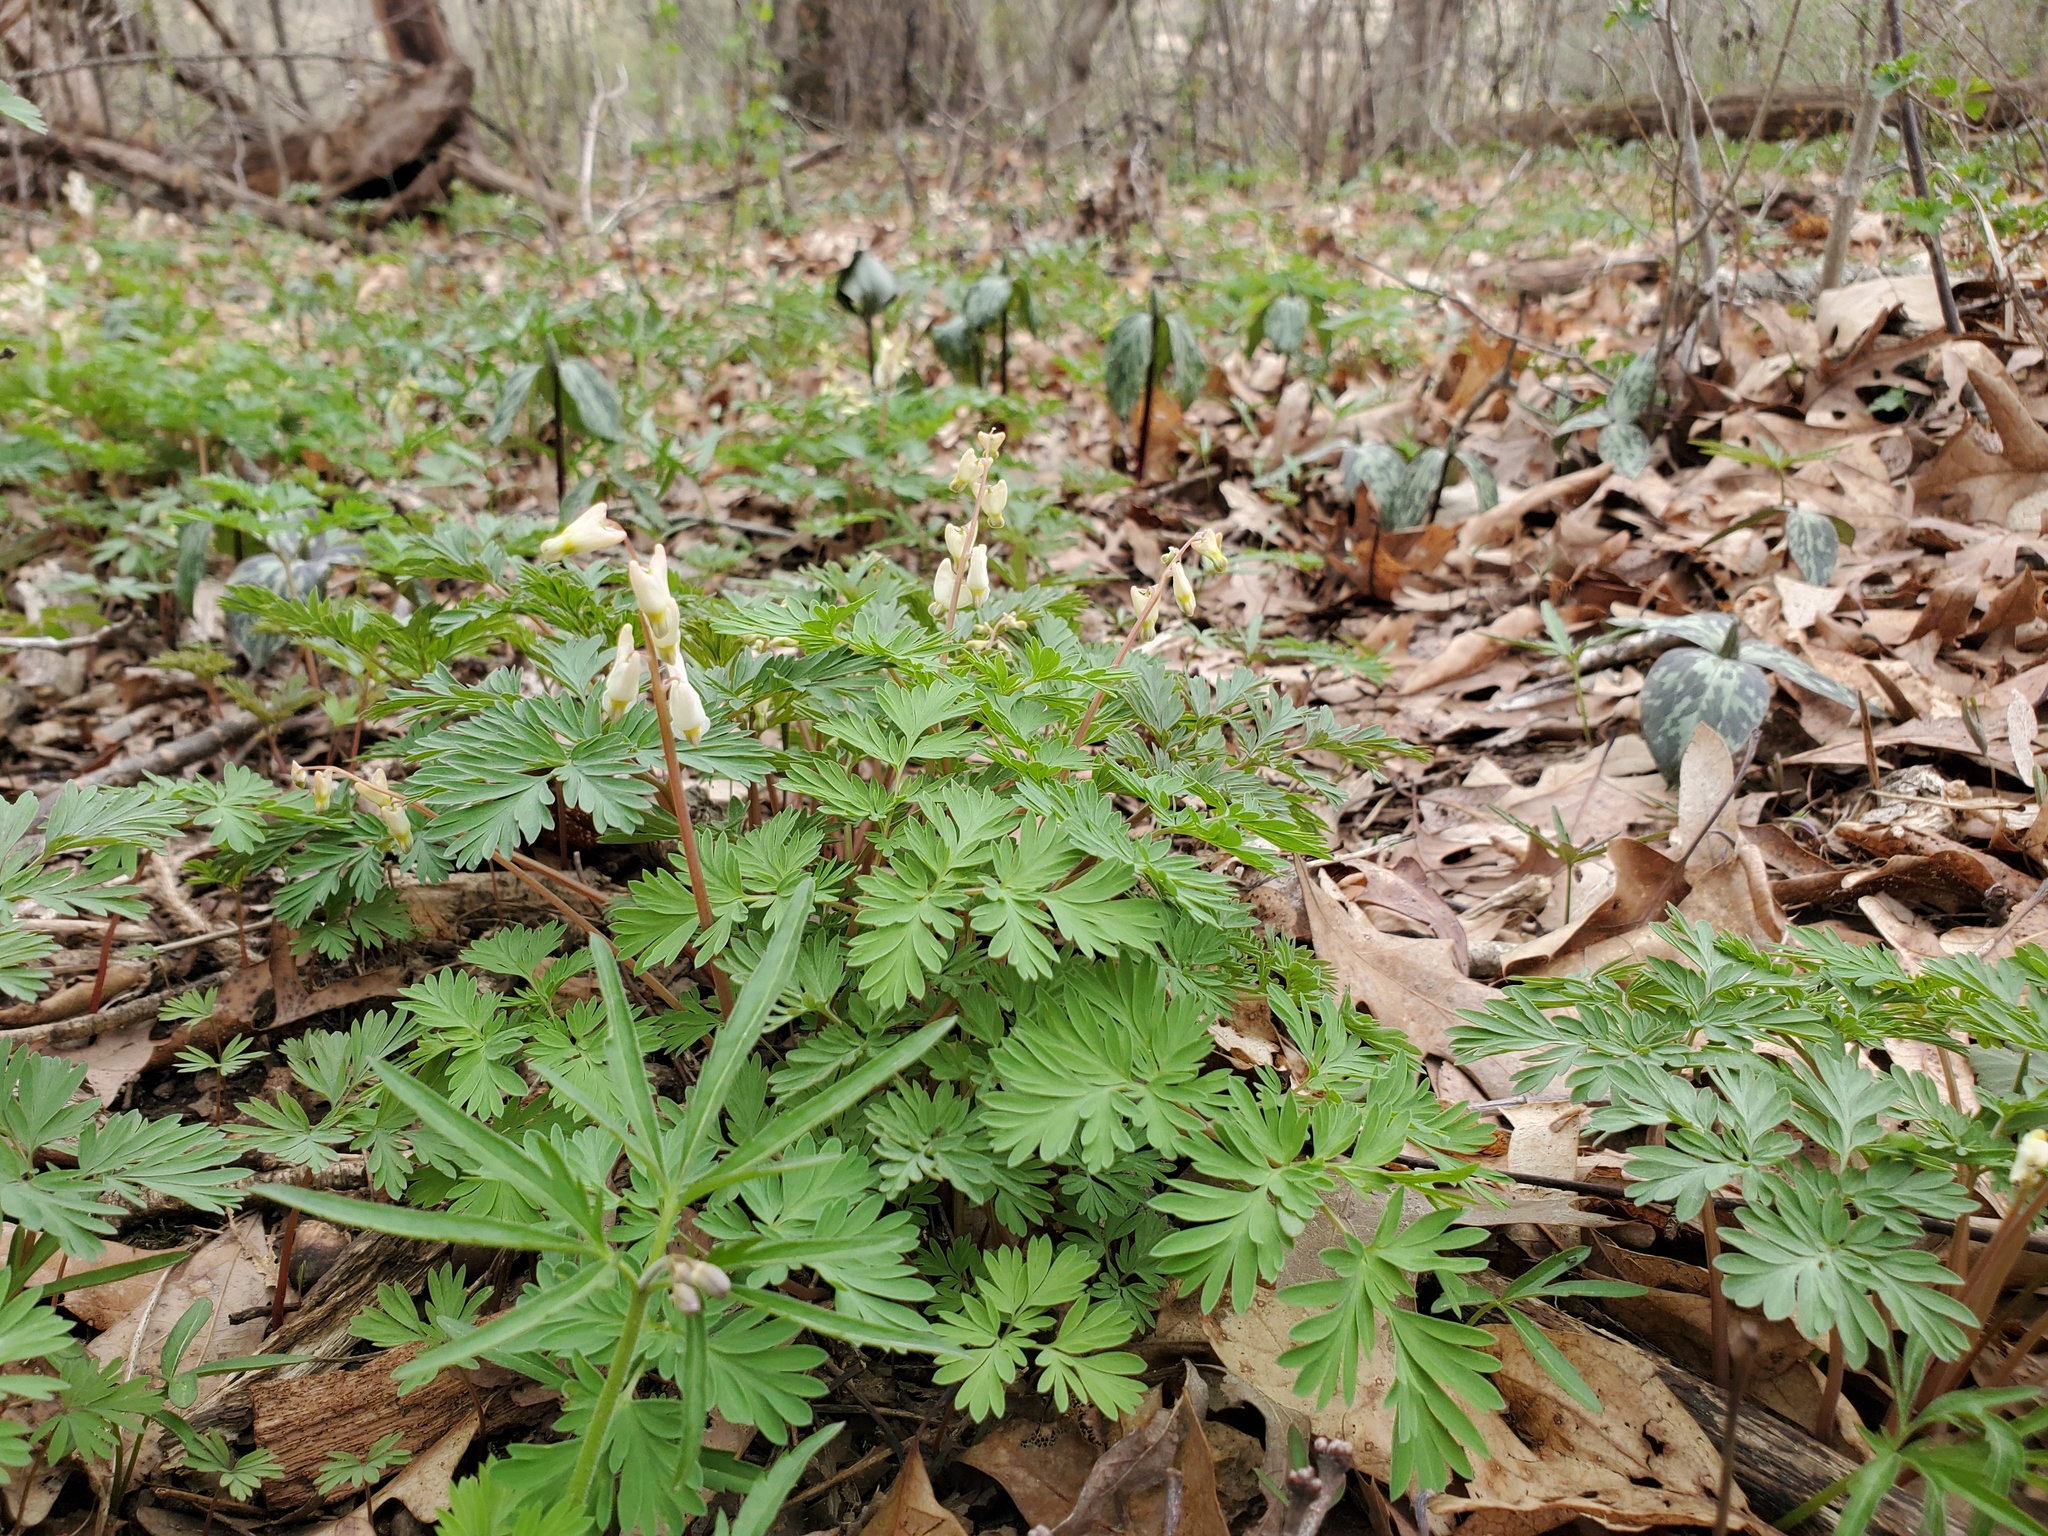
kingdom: Plantae
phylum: Tracheophyta
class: Magnoliopsida
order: Ranunculales
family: Papaveraceae
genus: Dicentra
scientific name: Dicentra cucullaria
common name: Dutchman's breeches
